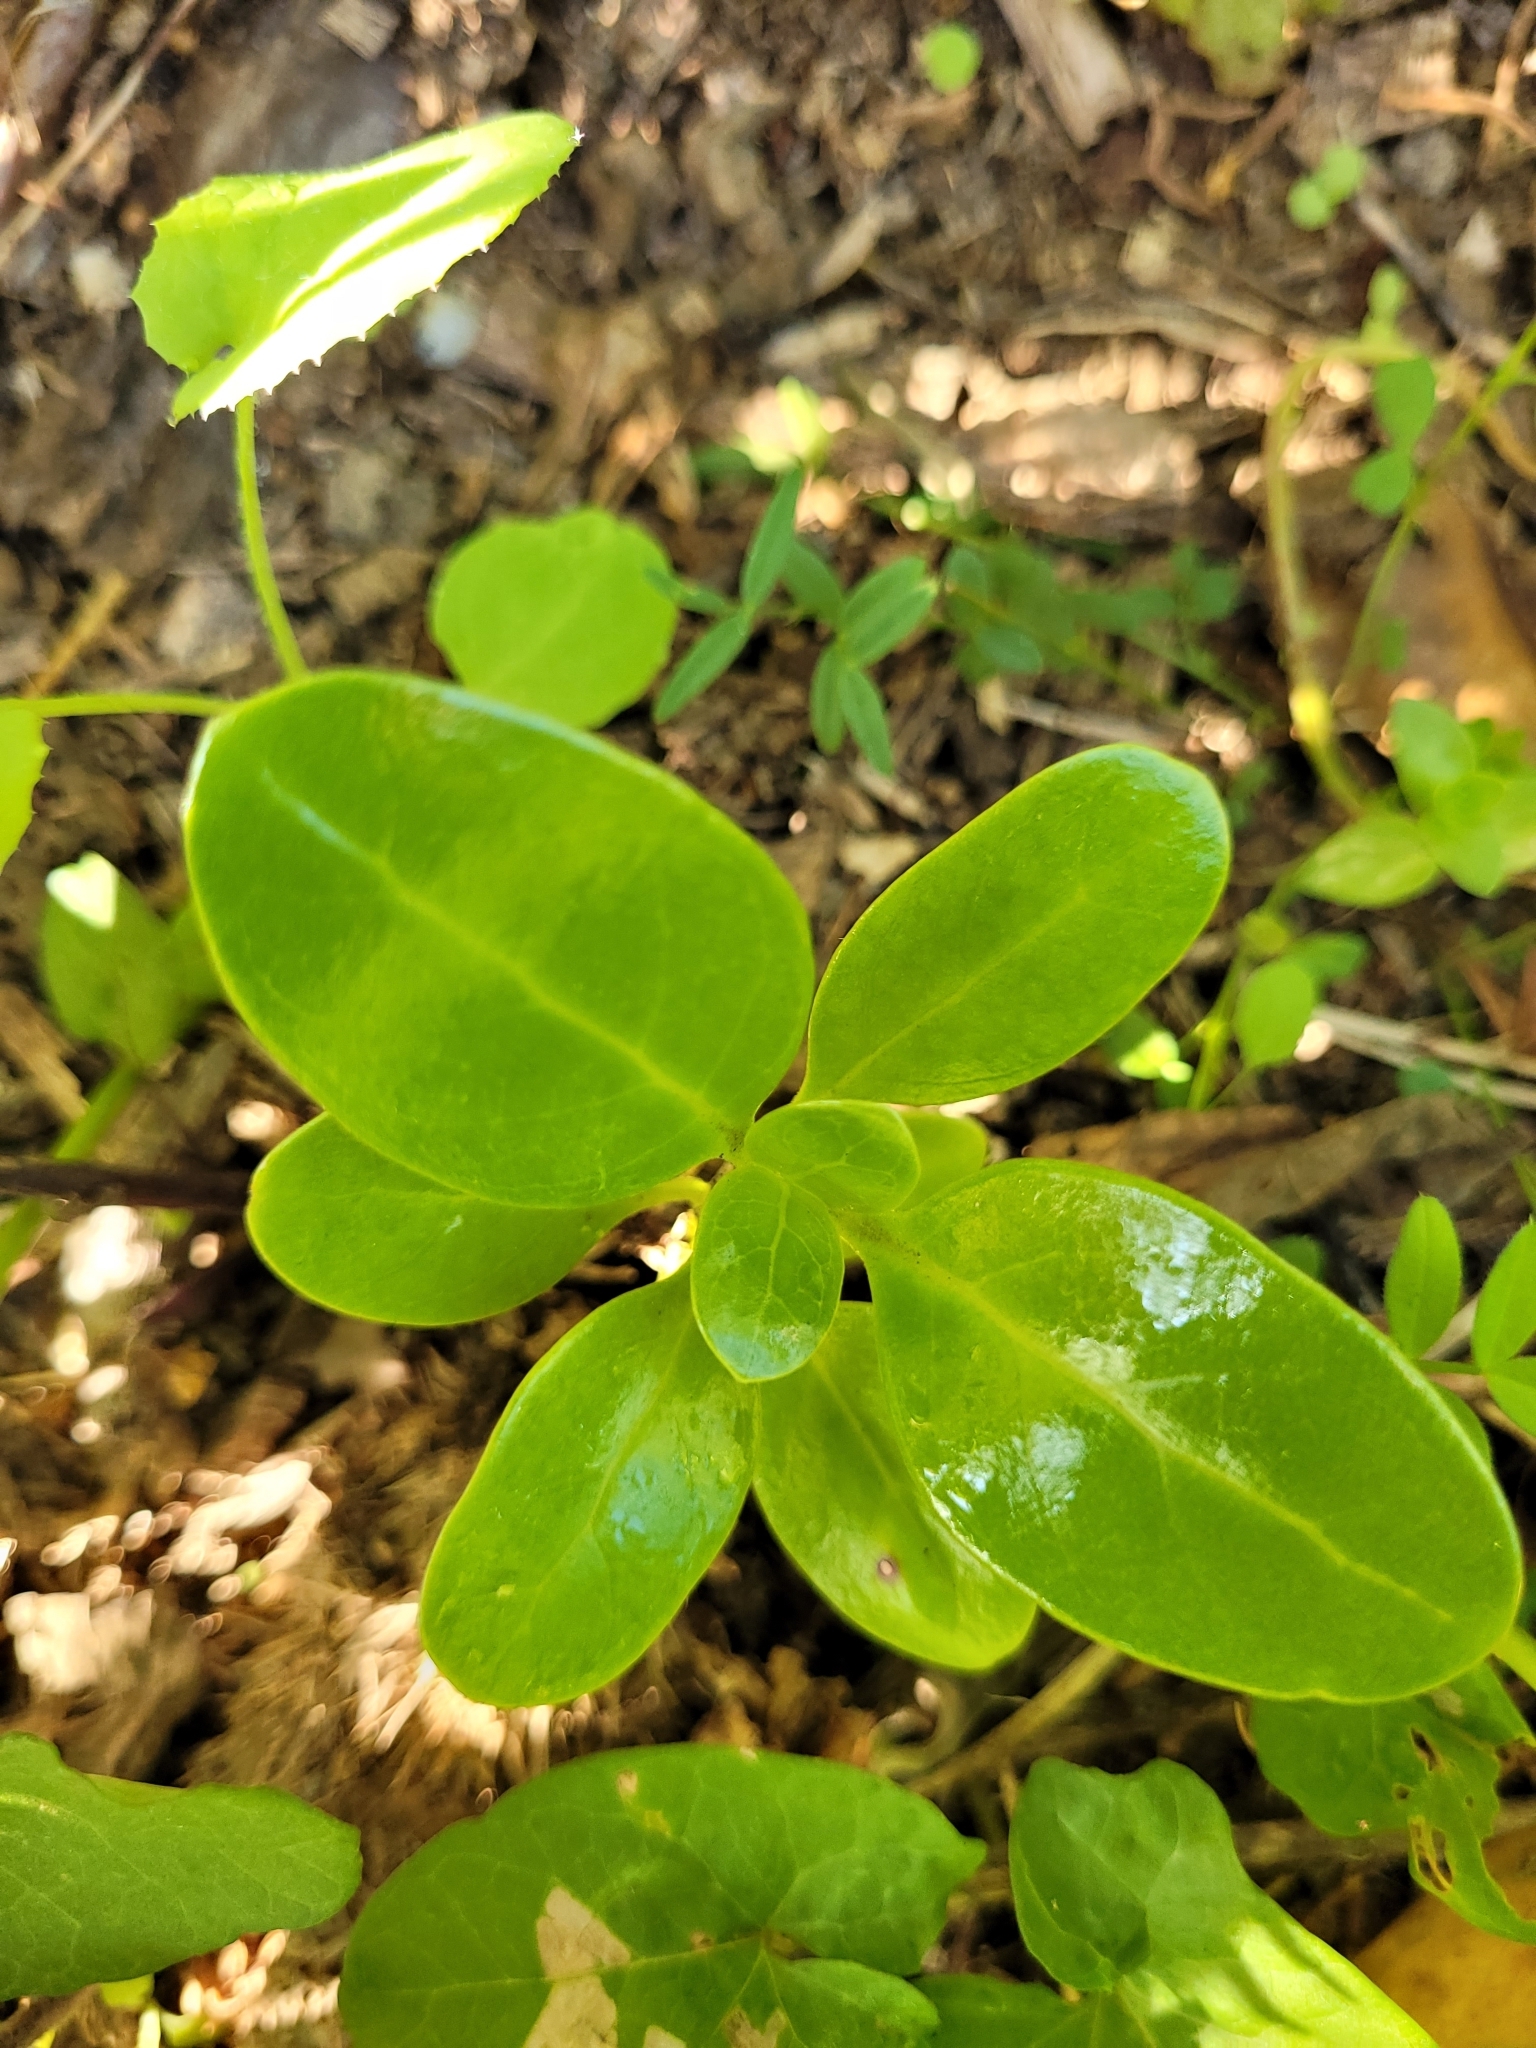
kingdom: Plantae
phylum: Tracheophyta
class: Magnoliopsida
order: Gentianales
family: Rubiaceae
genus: Coprosma
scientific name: Coprosma repens
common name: Tree bedstraw
